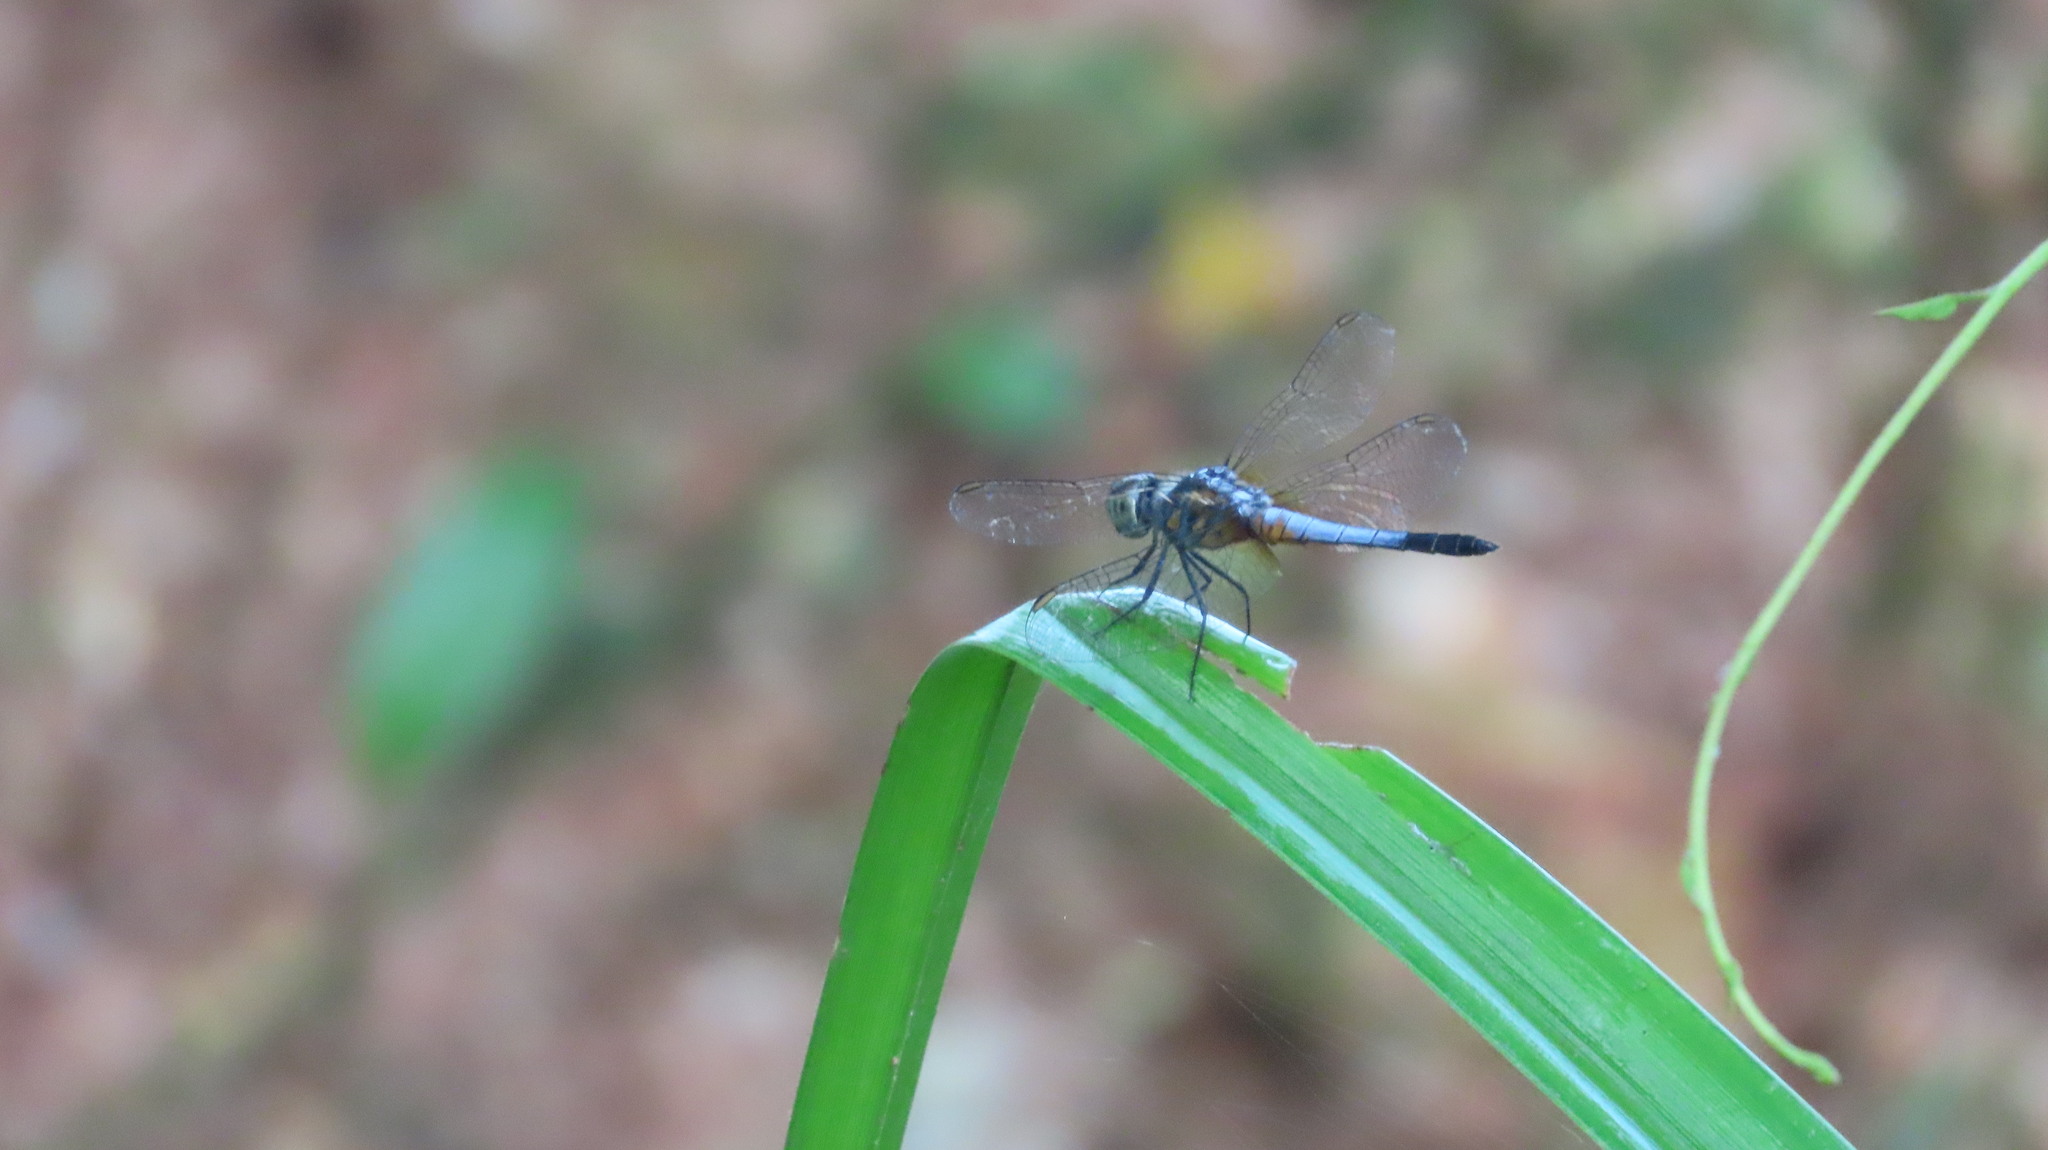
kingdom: Animalia
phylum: Arthropoda
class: Insecta
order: Odonata
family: Libellulidae
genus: Brachydiplax
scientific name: Brachydiplax chalybea
